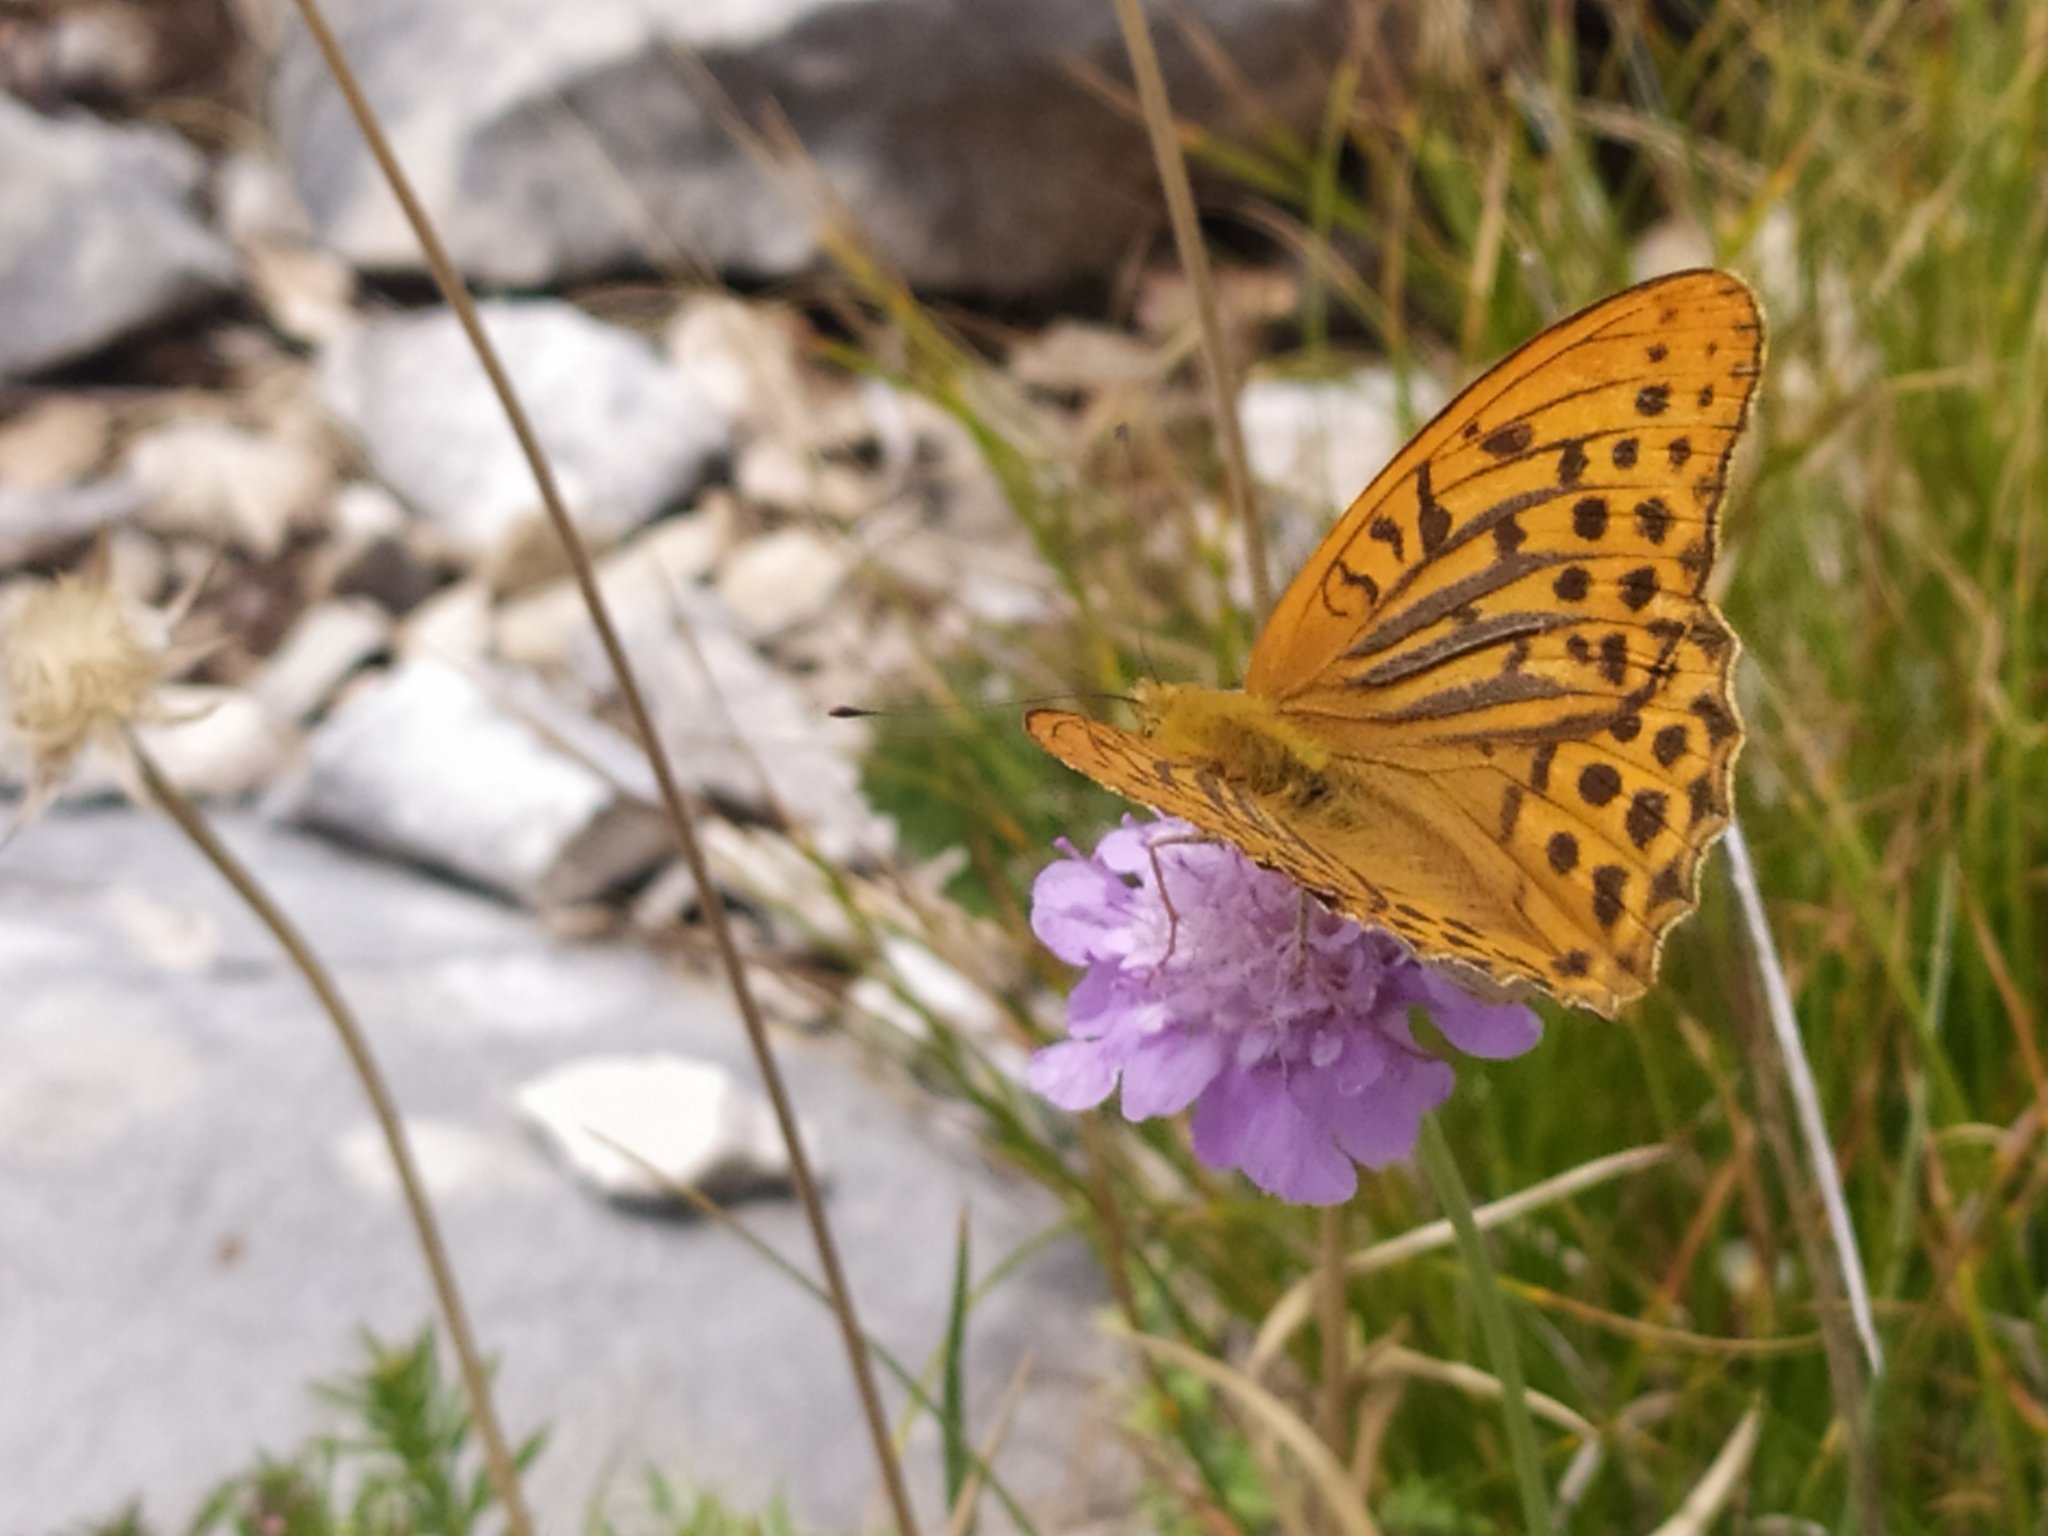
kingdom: Animalia
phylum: Arthropoda
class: Insecta
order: Lepidoptera
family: Nymphalidae
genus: Argynnis
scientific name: Argynnis paphia
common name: Silver-washed fritillary
